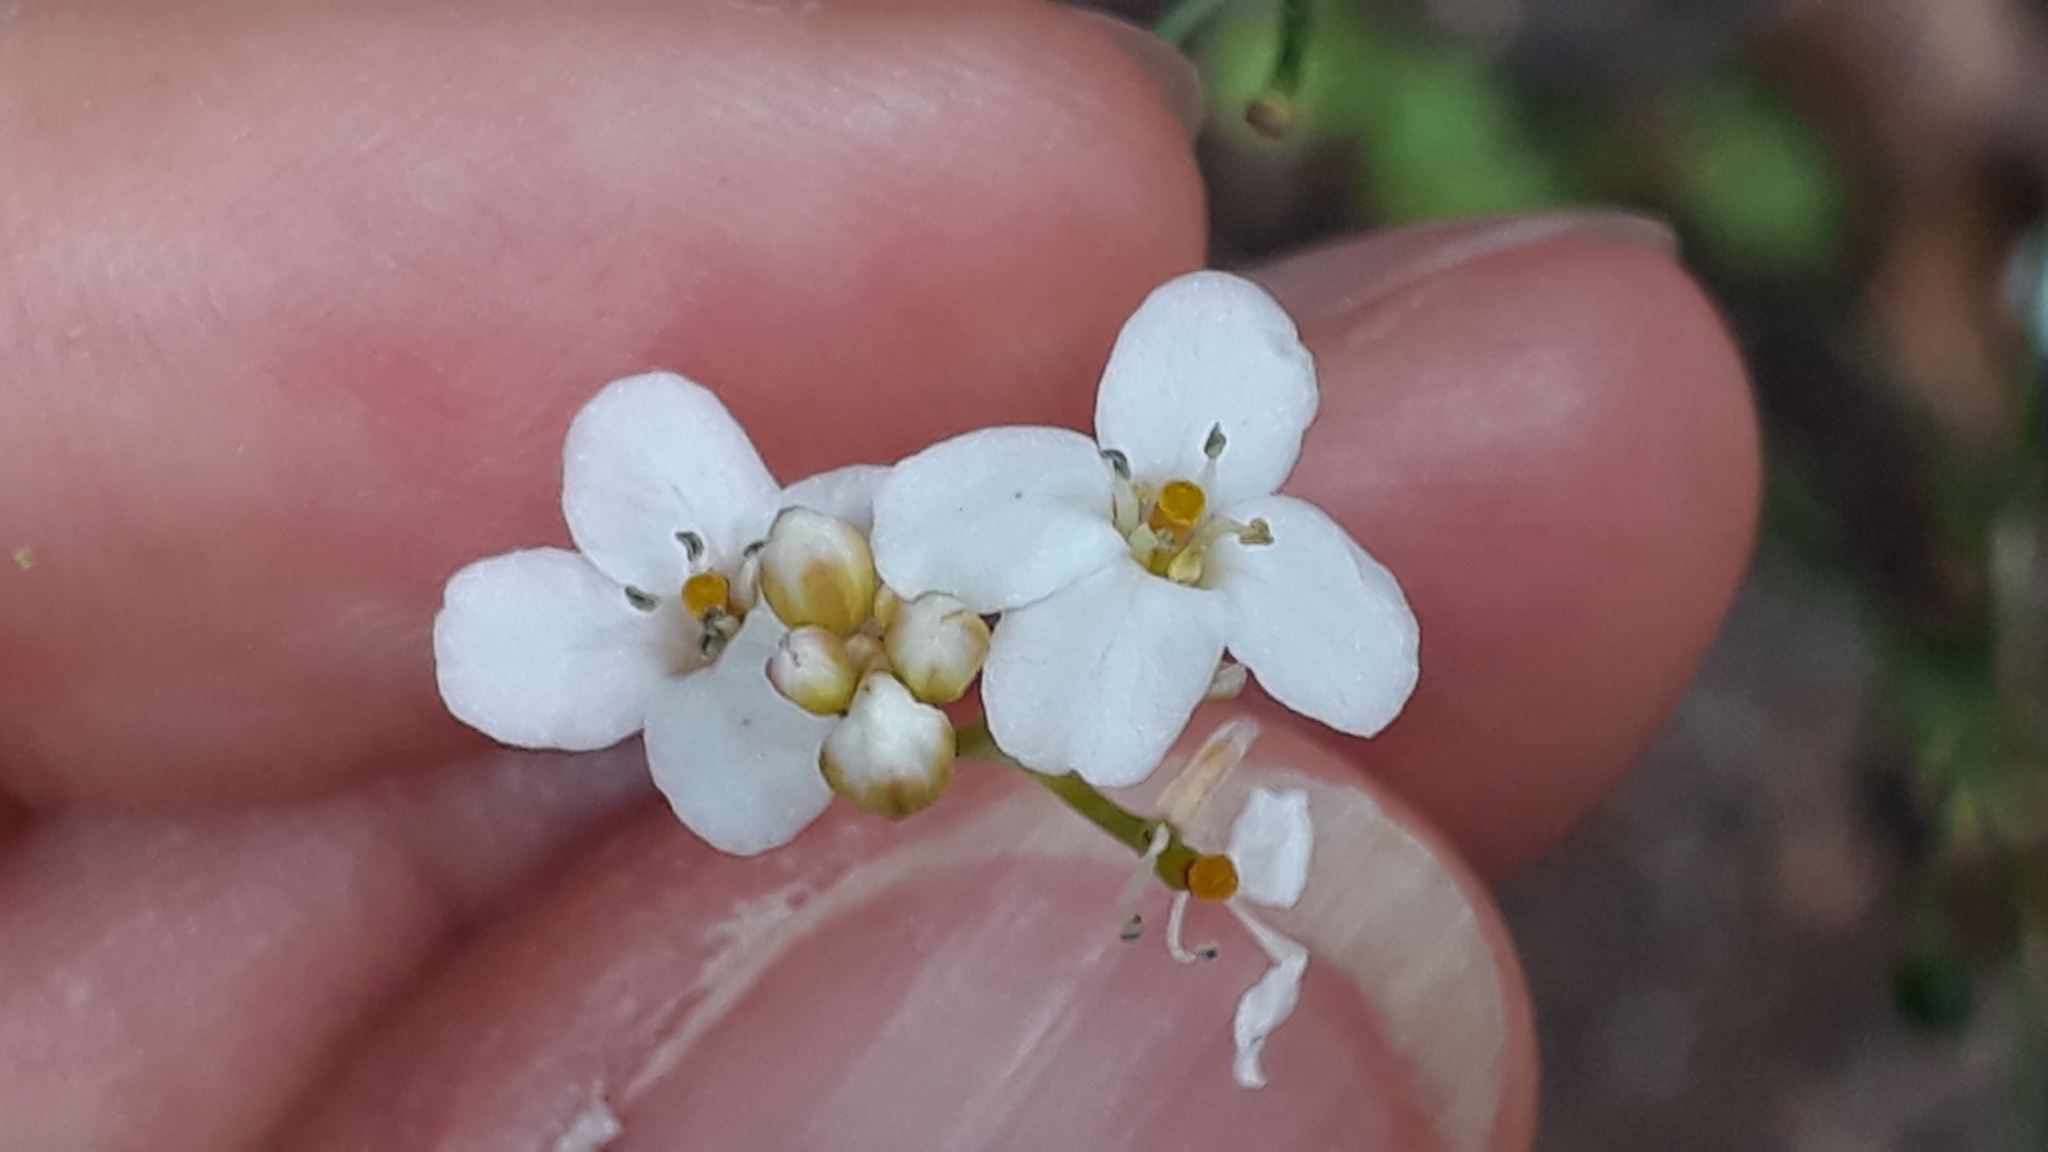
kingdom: Plantae
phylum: Tracheophyta
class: Magnoliopsida
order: Brassicales
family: Brassicaceae
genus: Crambe
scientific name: Crambe strigosa
